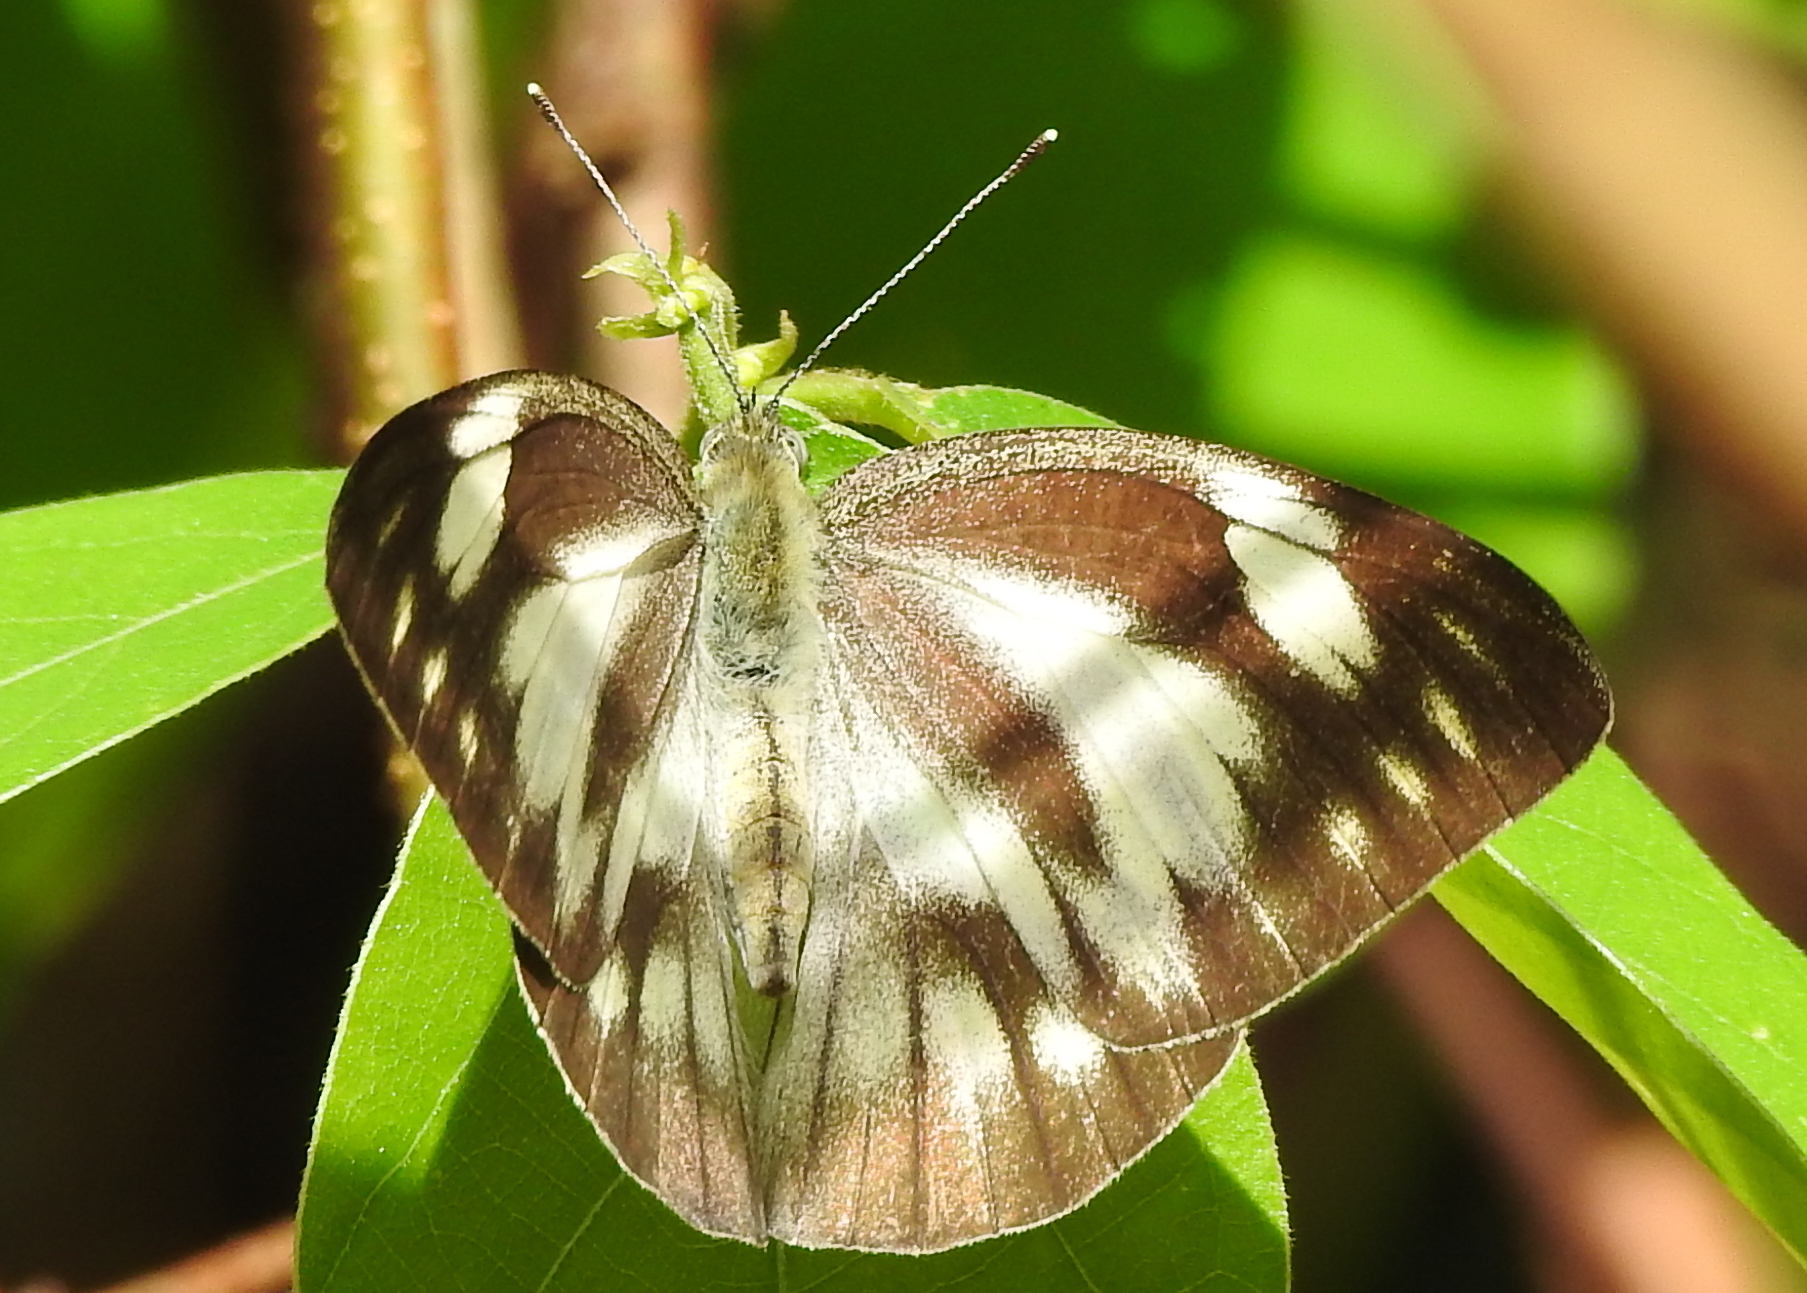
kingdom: Animalia
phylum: Arthropoda
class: Insecta
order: Lepidoptera
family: Pieridae
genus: Appias
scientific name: Appias libythea
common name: Striped albatross
